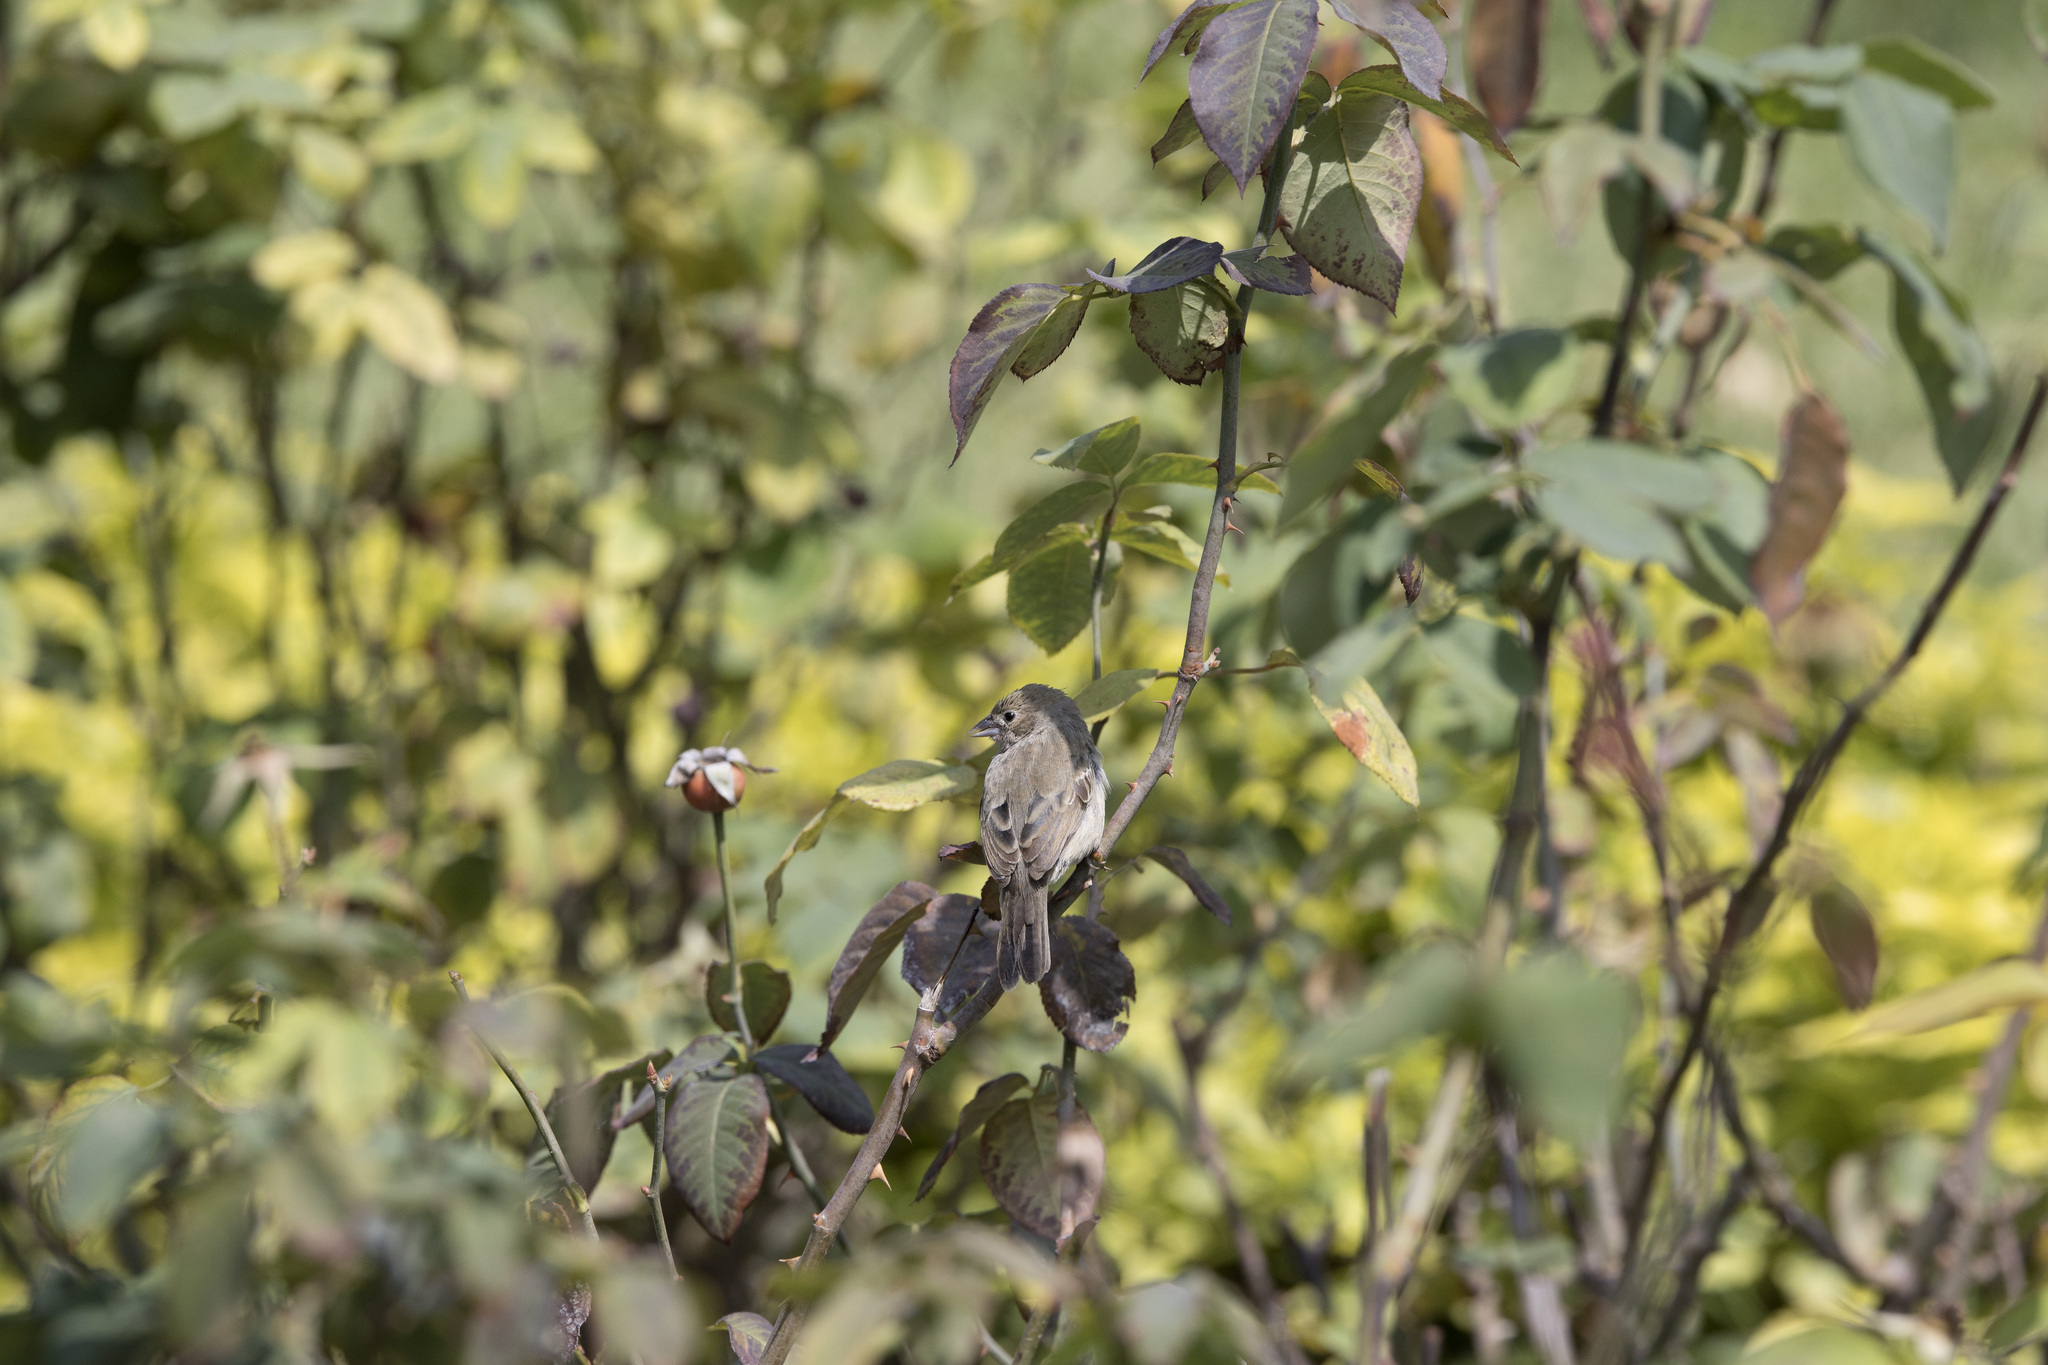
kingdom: Animalia
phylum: Chordata
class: Aves
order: Passeriformes
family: Thraupidae
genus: Volatinia
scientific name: Volatinia jacarina
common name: Blue-black grassquit
